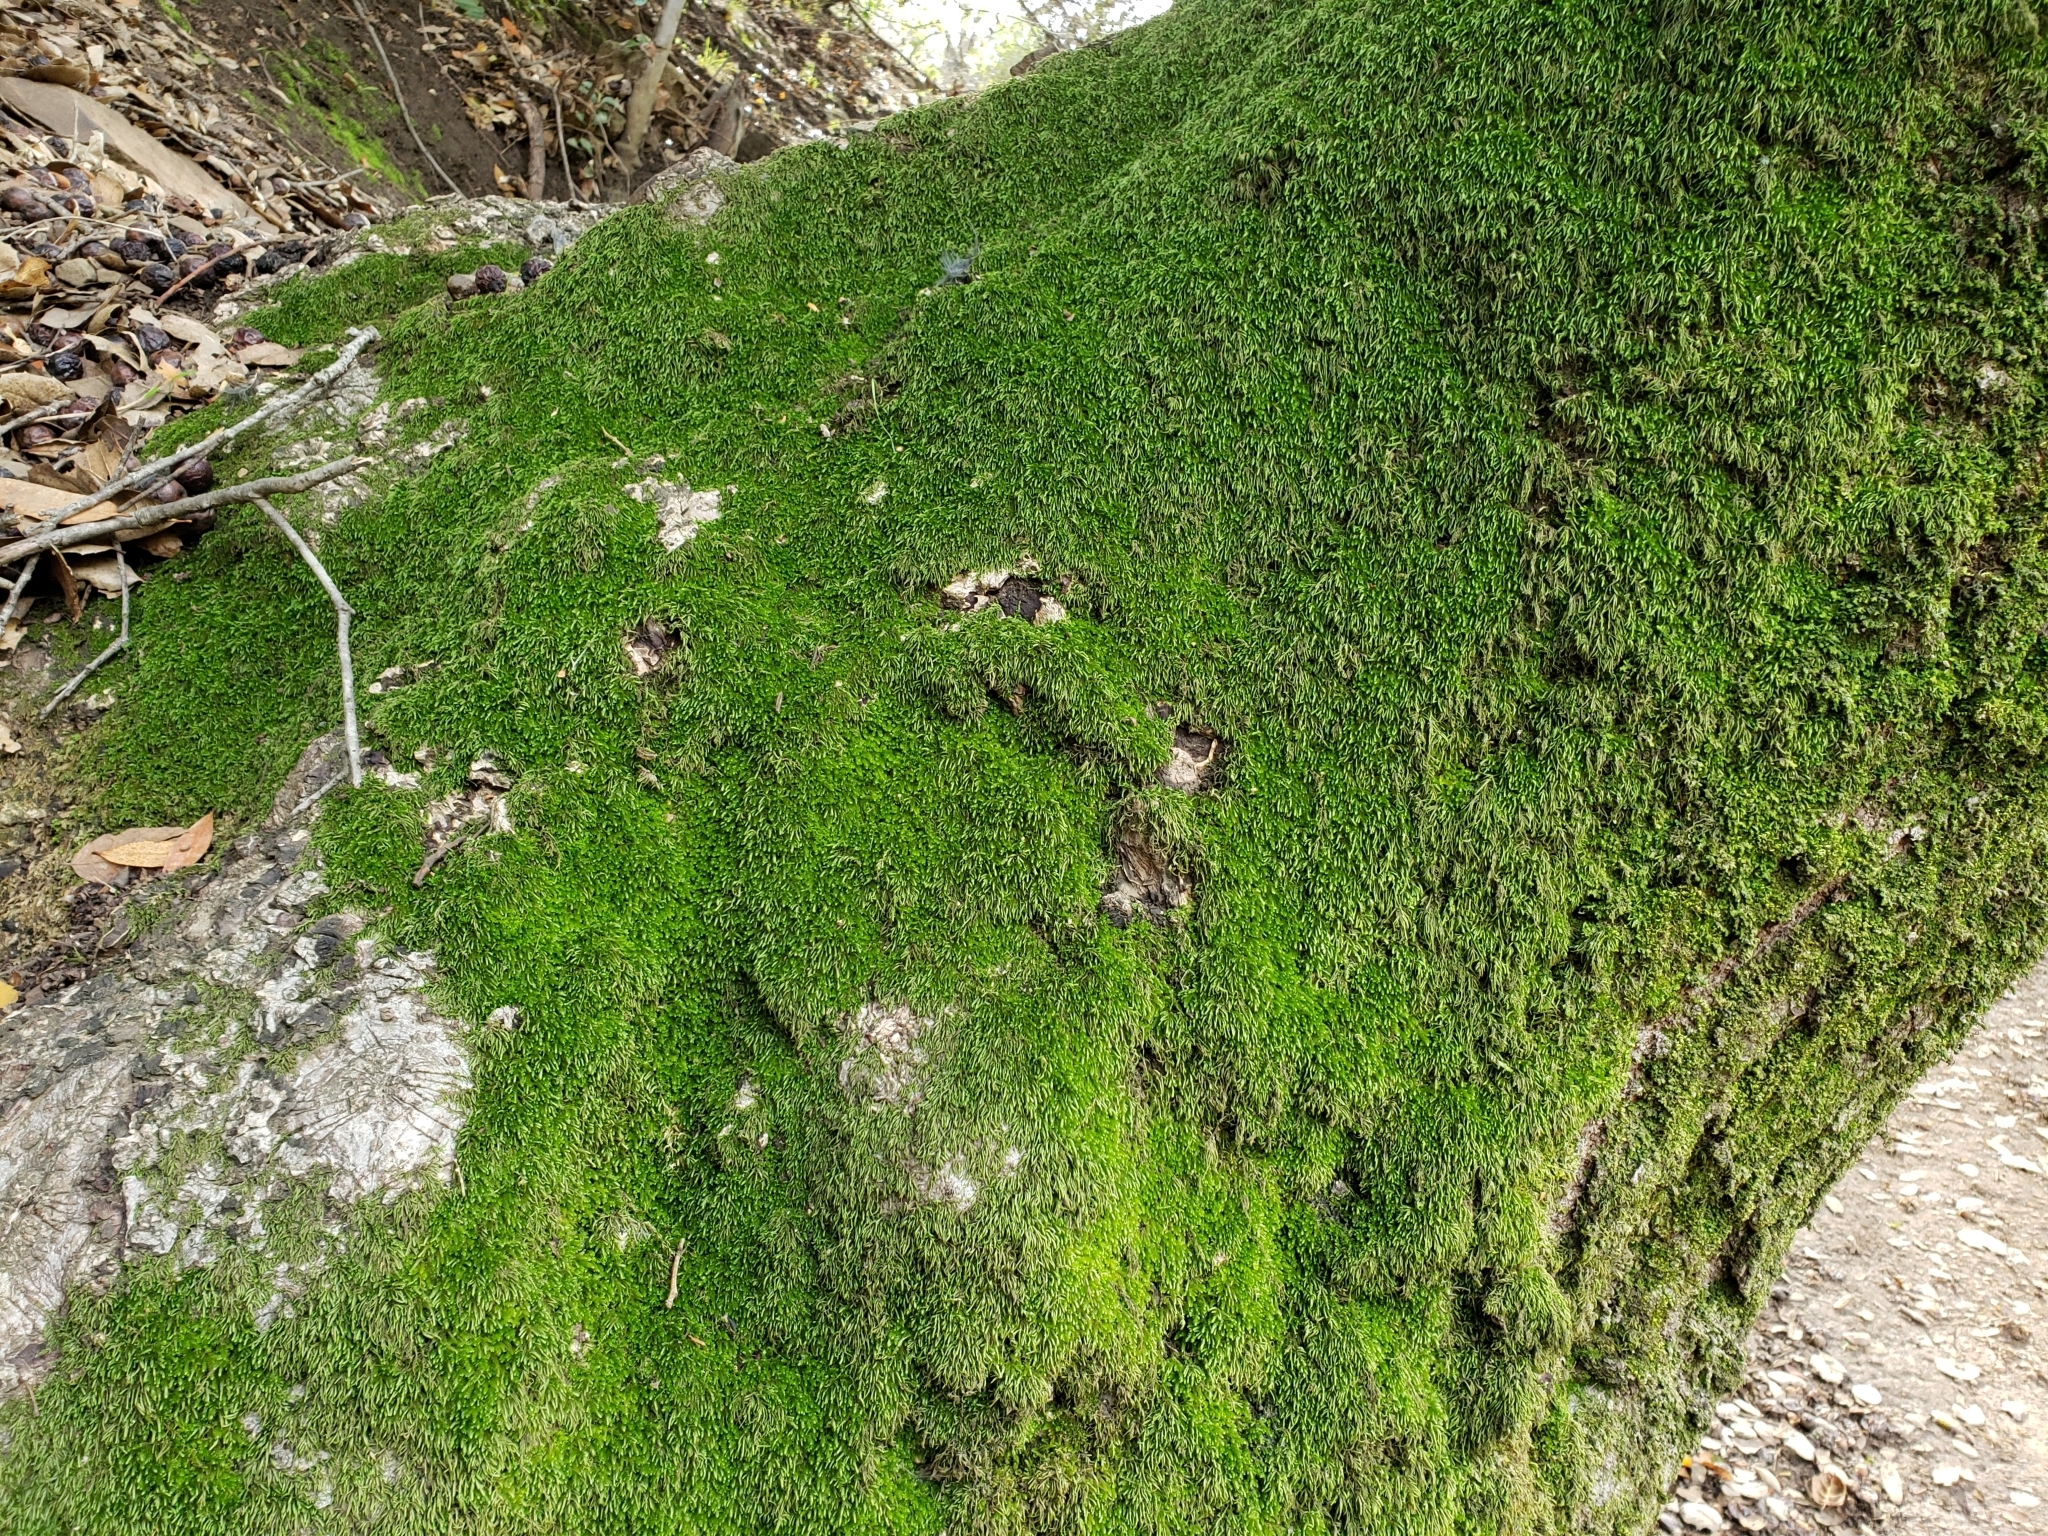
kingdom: Plantae
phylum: Bryophyta
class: Bryopsida
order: Dicranales
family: Dicranaceae
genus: Dicranum
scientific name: Dicranum scoparium
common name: Broom fork-moss
